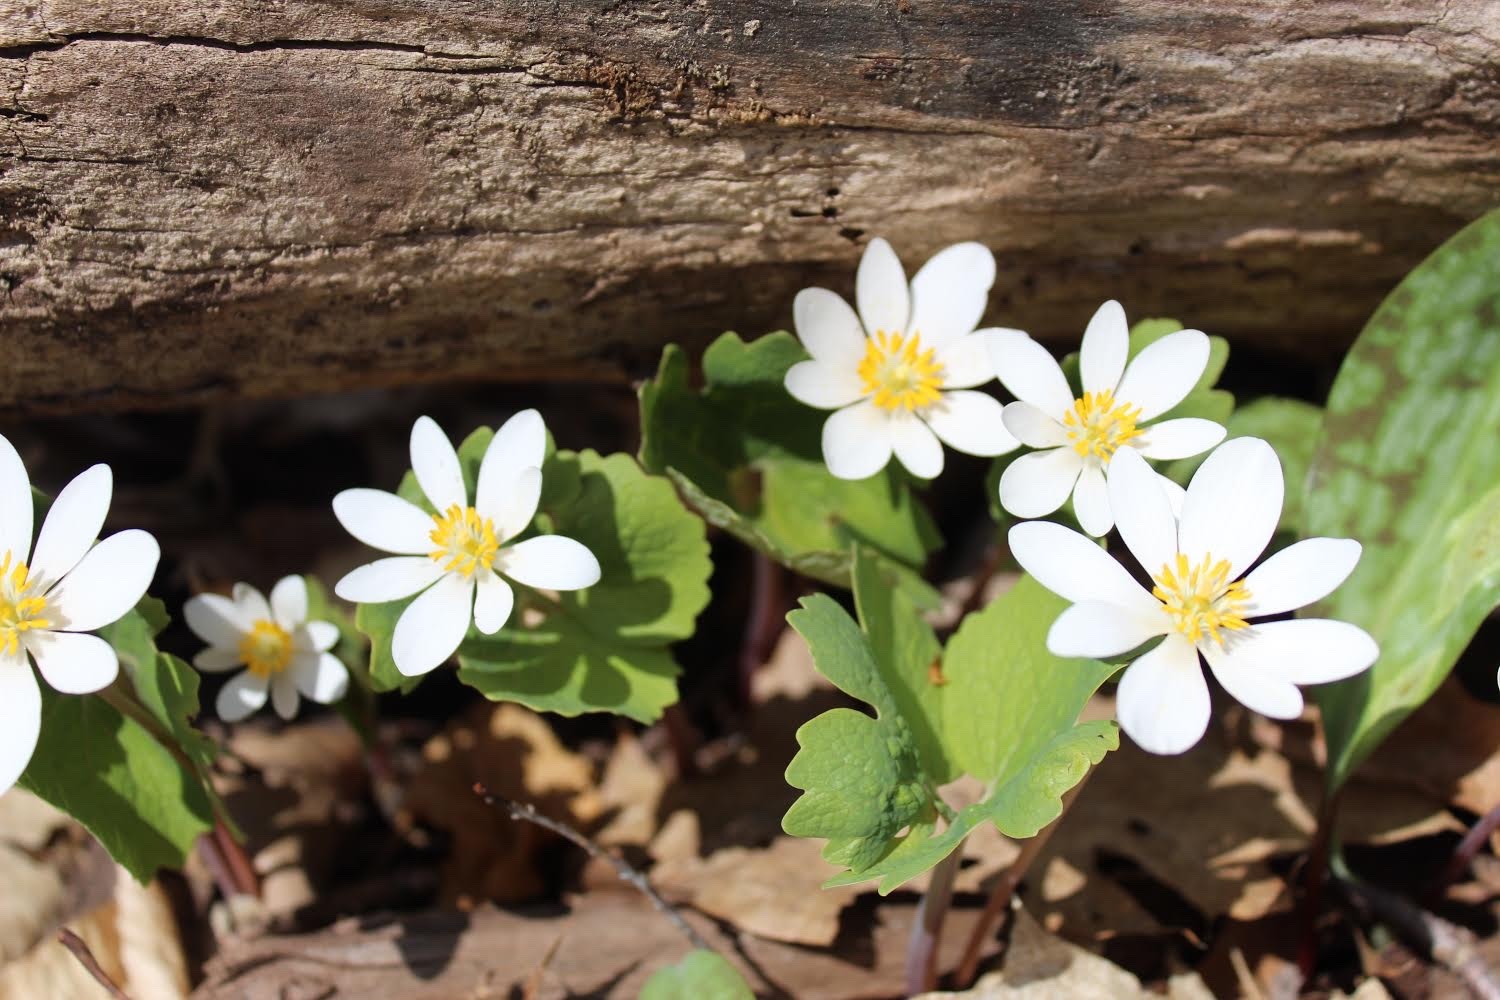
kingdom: Plantae
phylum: Tracheophyta
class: Magnoliopsida
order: Ranunculales
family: Papaveraceae
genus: Sanguinaria
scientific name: Sanguinaria canadensis
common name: Bloodroot
